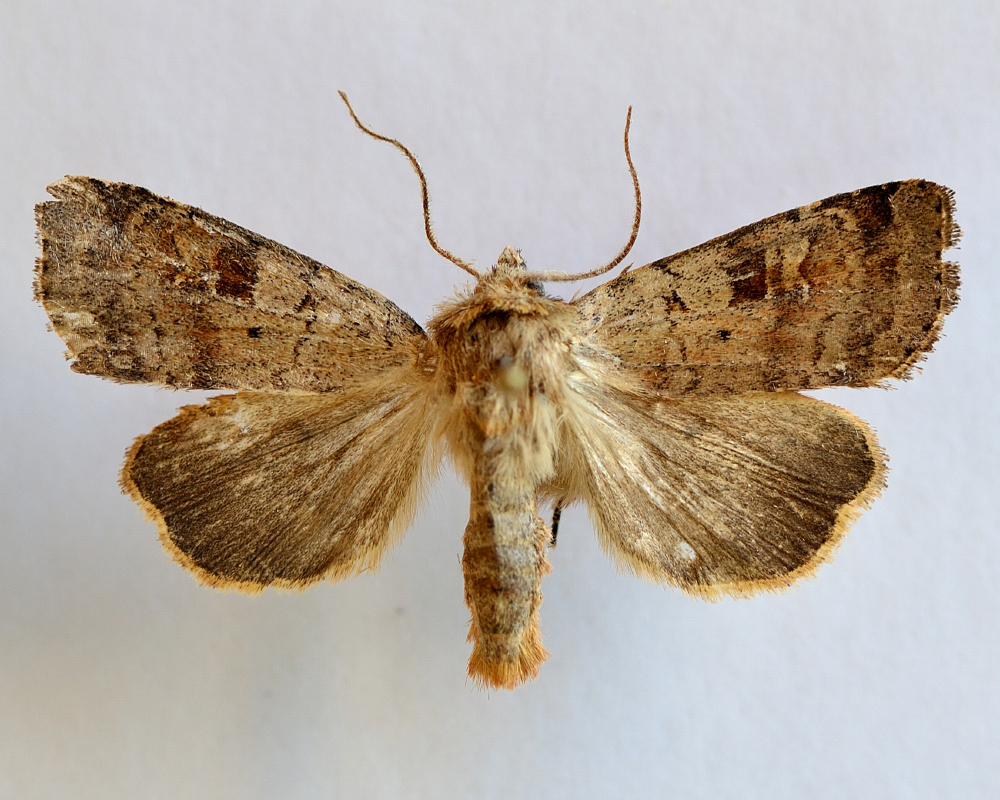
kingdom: Animalia
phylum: Arthropoda
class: Insecta
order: Lepidoptera
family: Noctuidae
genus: Diarsia
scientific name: Diarsia mendica
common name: Ingrailed clay
